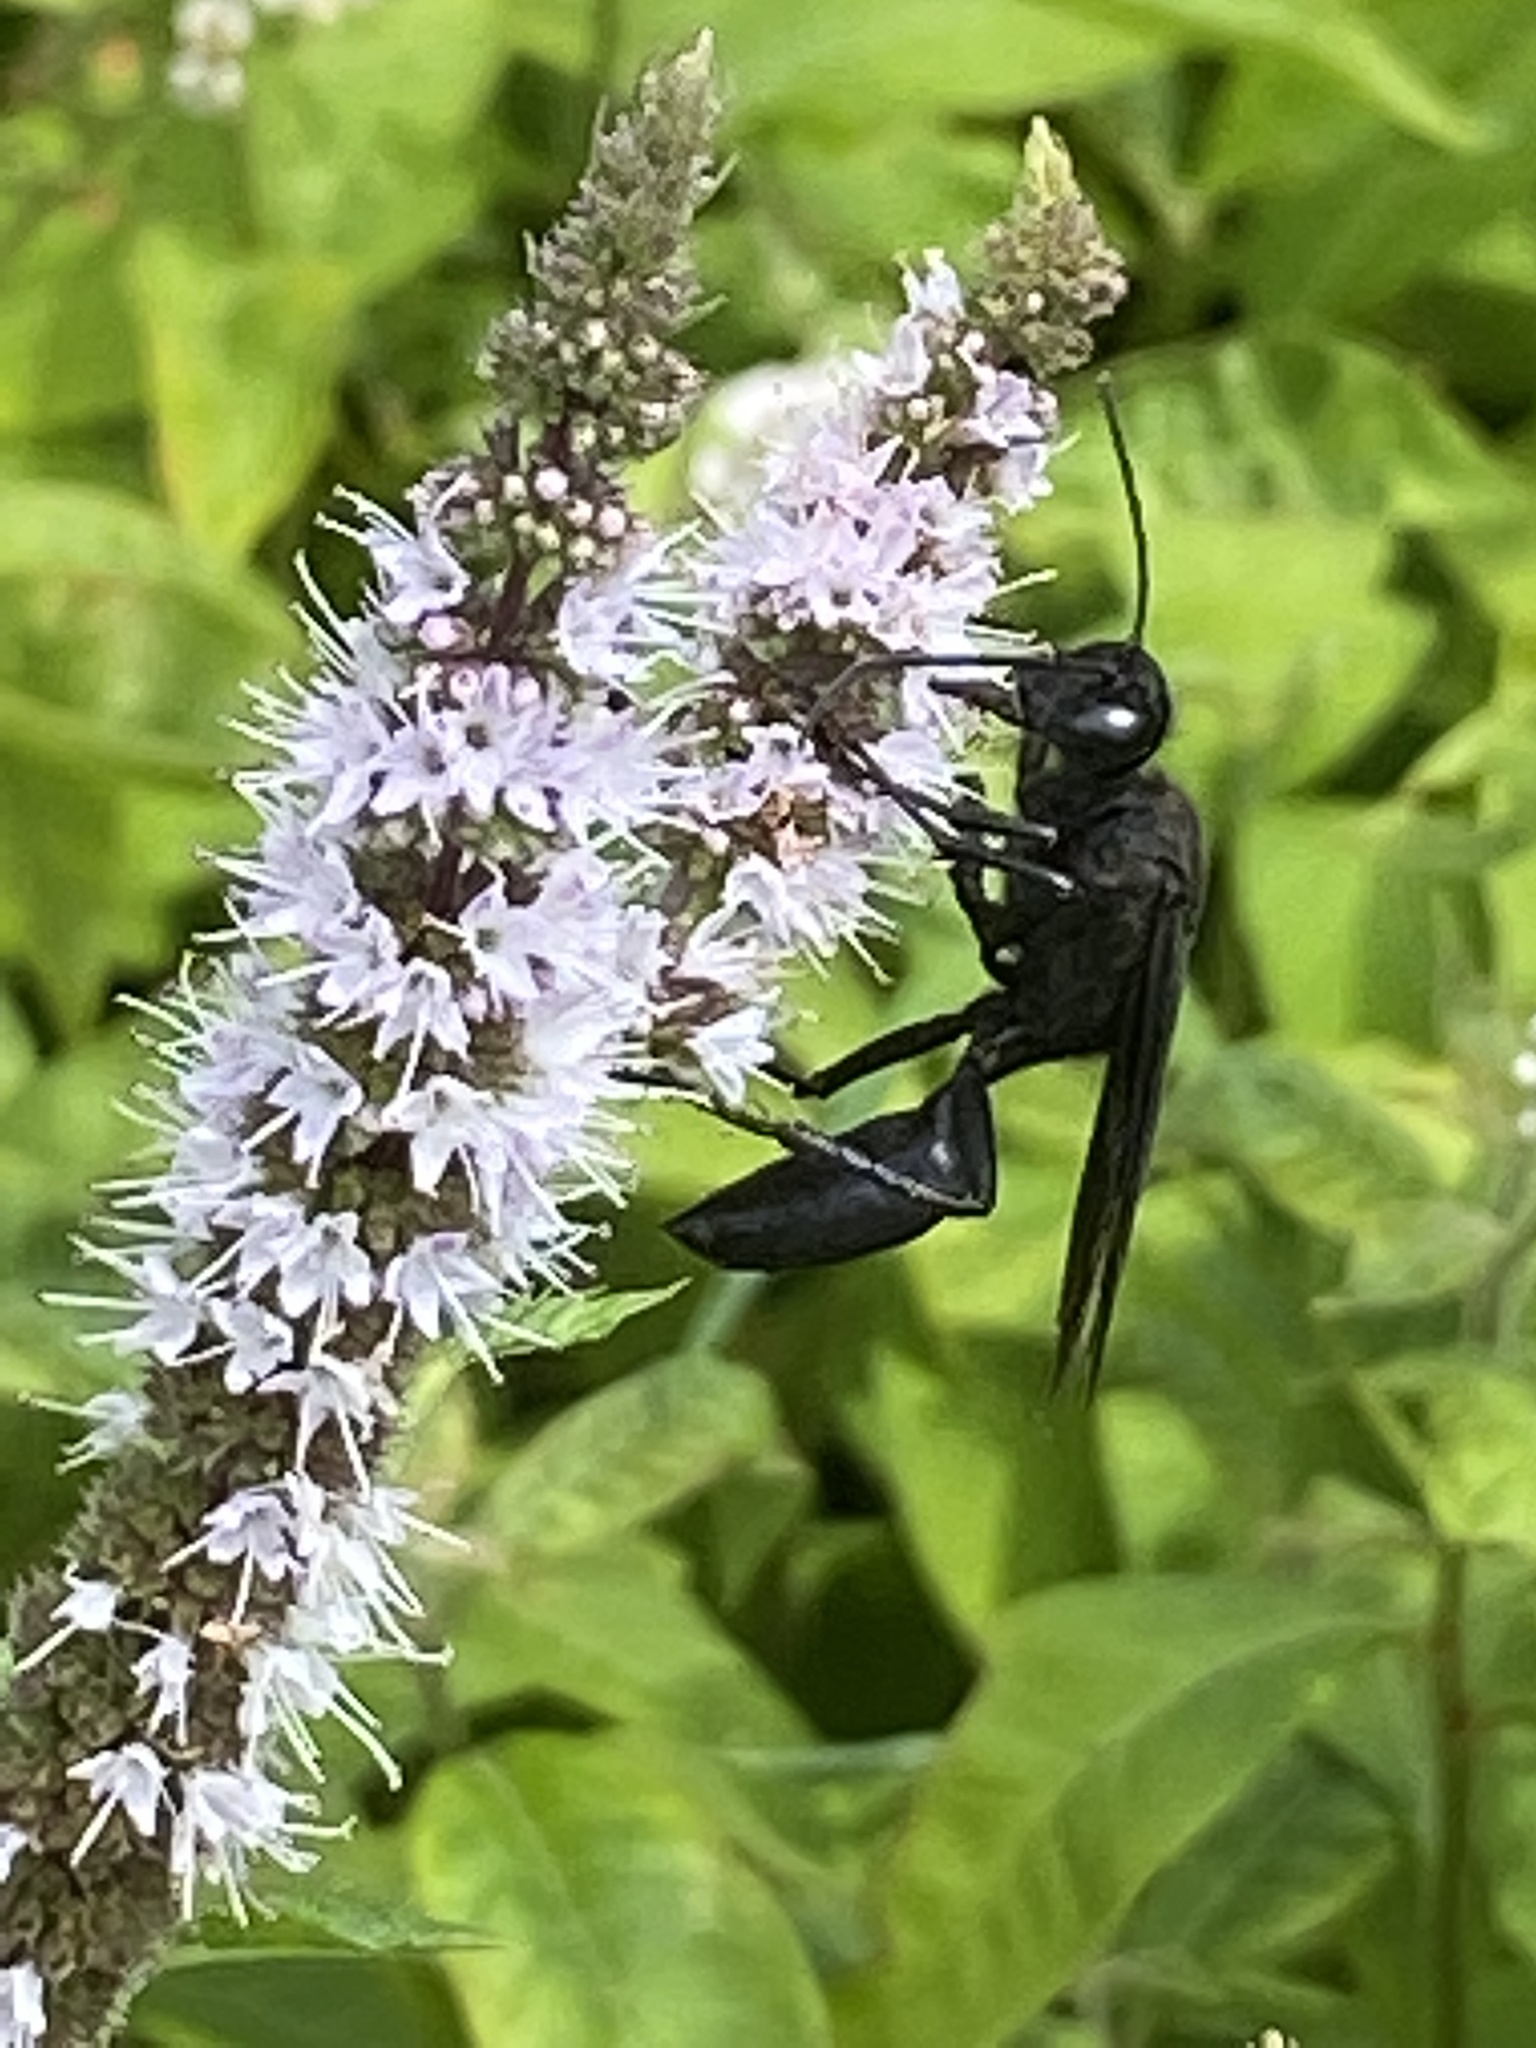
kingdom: Animalia
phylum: Arthropoda
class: Insecta
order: Hymenoptera
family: Sphecidae
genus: Sphex
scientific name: Sphex pensylvanicus
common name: Great black digger wasp
